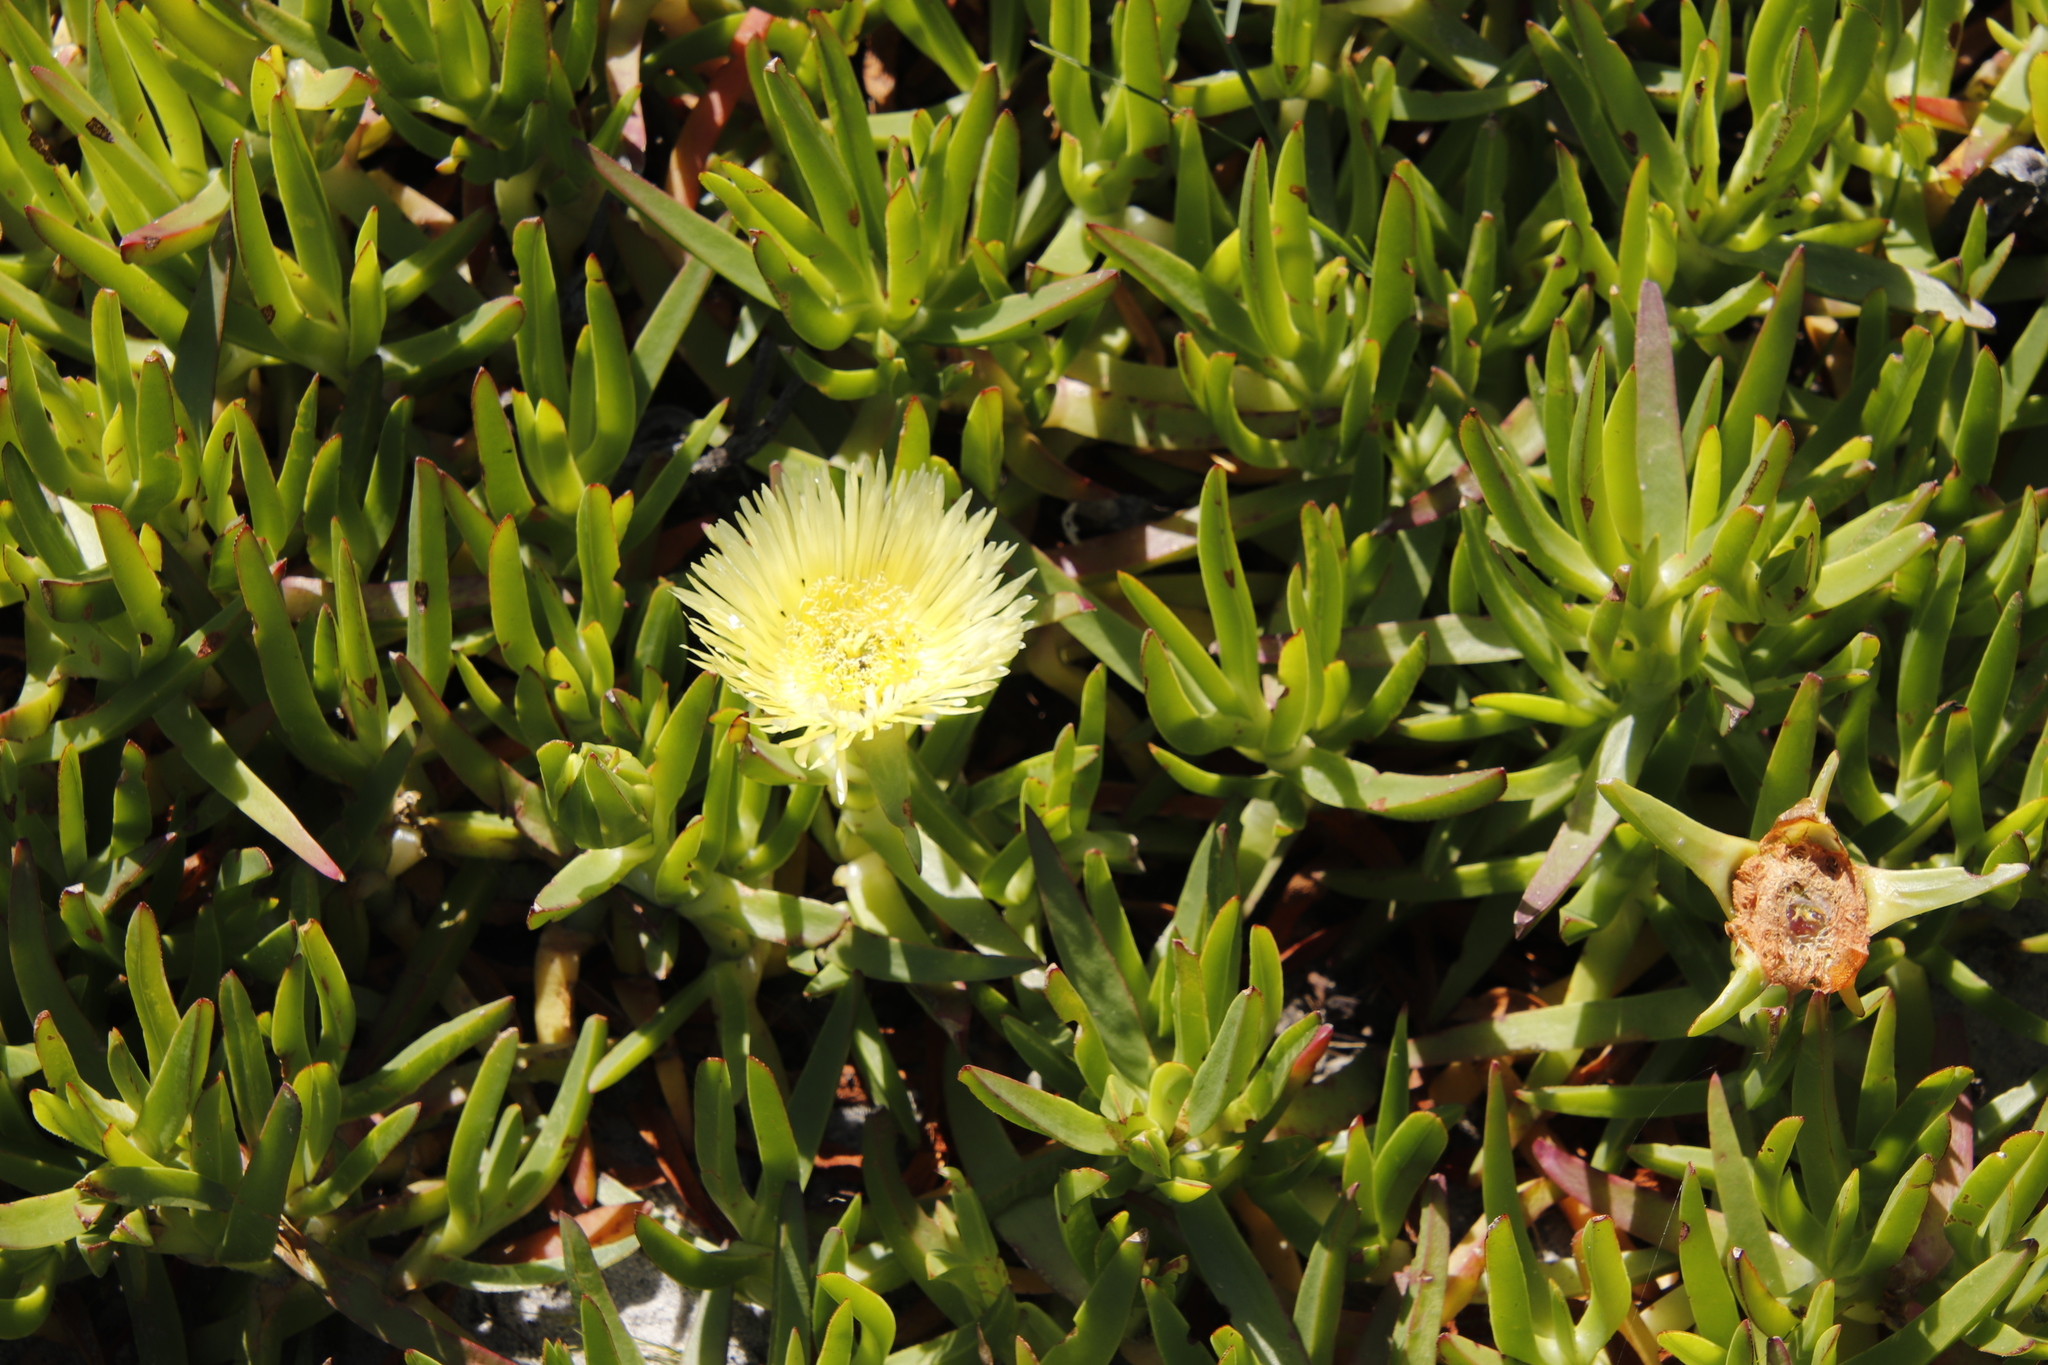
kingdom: Plantae
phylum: Tracheophyta
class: Magnoliopsida
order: Caryophyllales
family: Aizoaceae
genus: Carpobrotus
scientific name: Carpobrotus edulis
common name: Hottentot-fig
